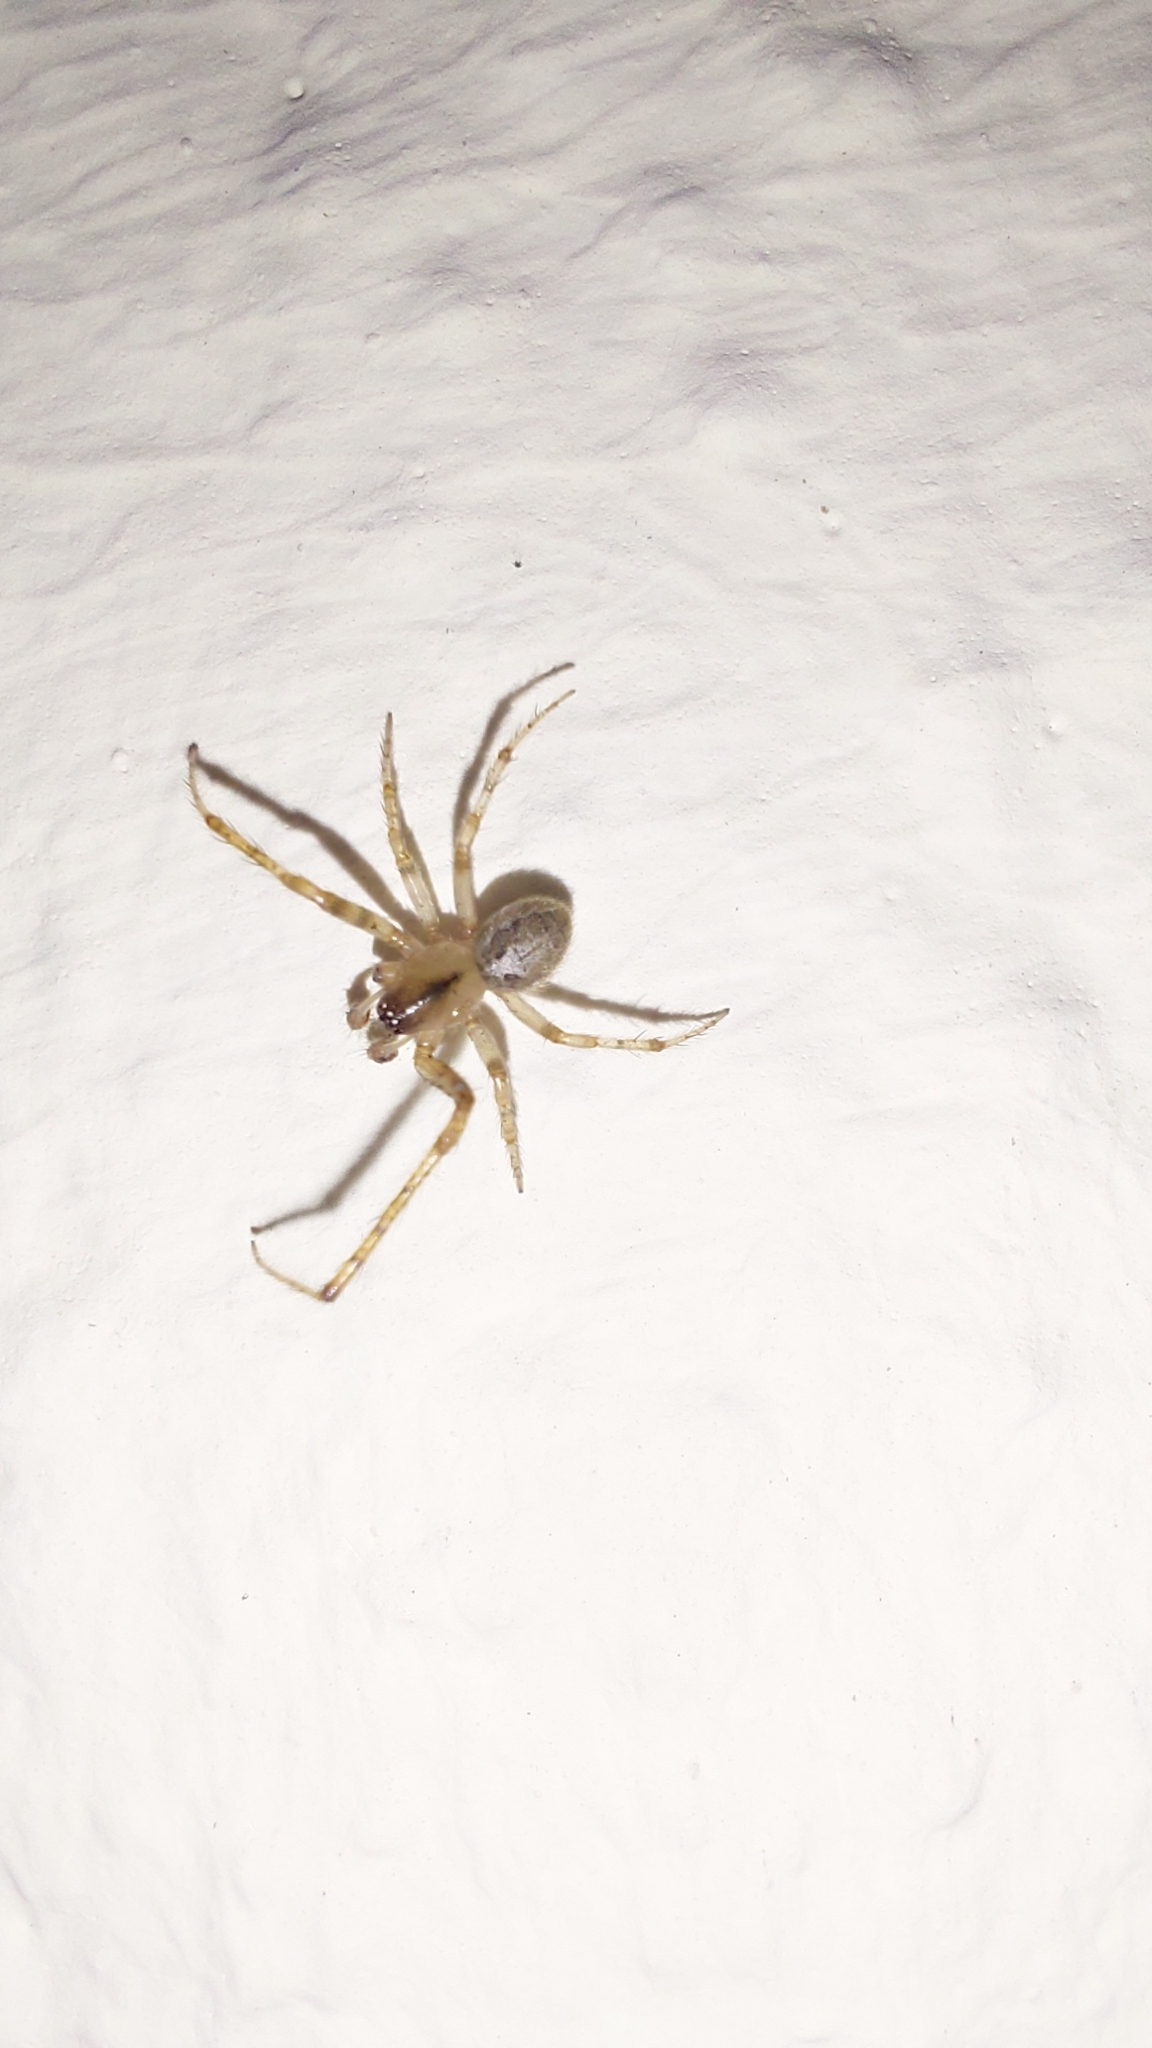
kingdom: Animalia
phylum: Arthropoda
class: Arachnida
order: Araneae
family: Araneidae
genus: Zygiella
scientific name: Zygiella x-notata
